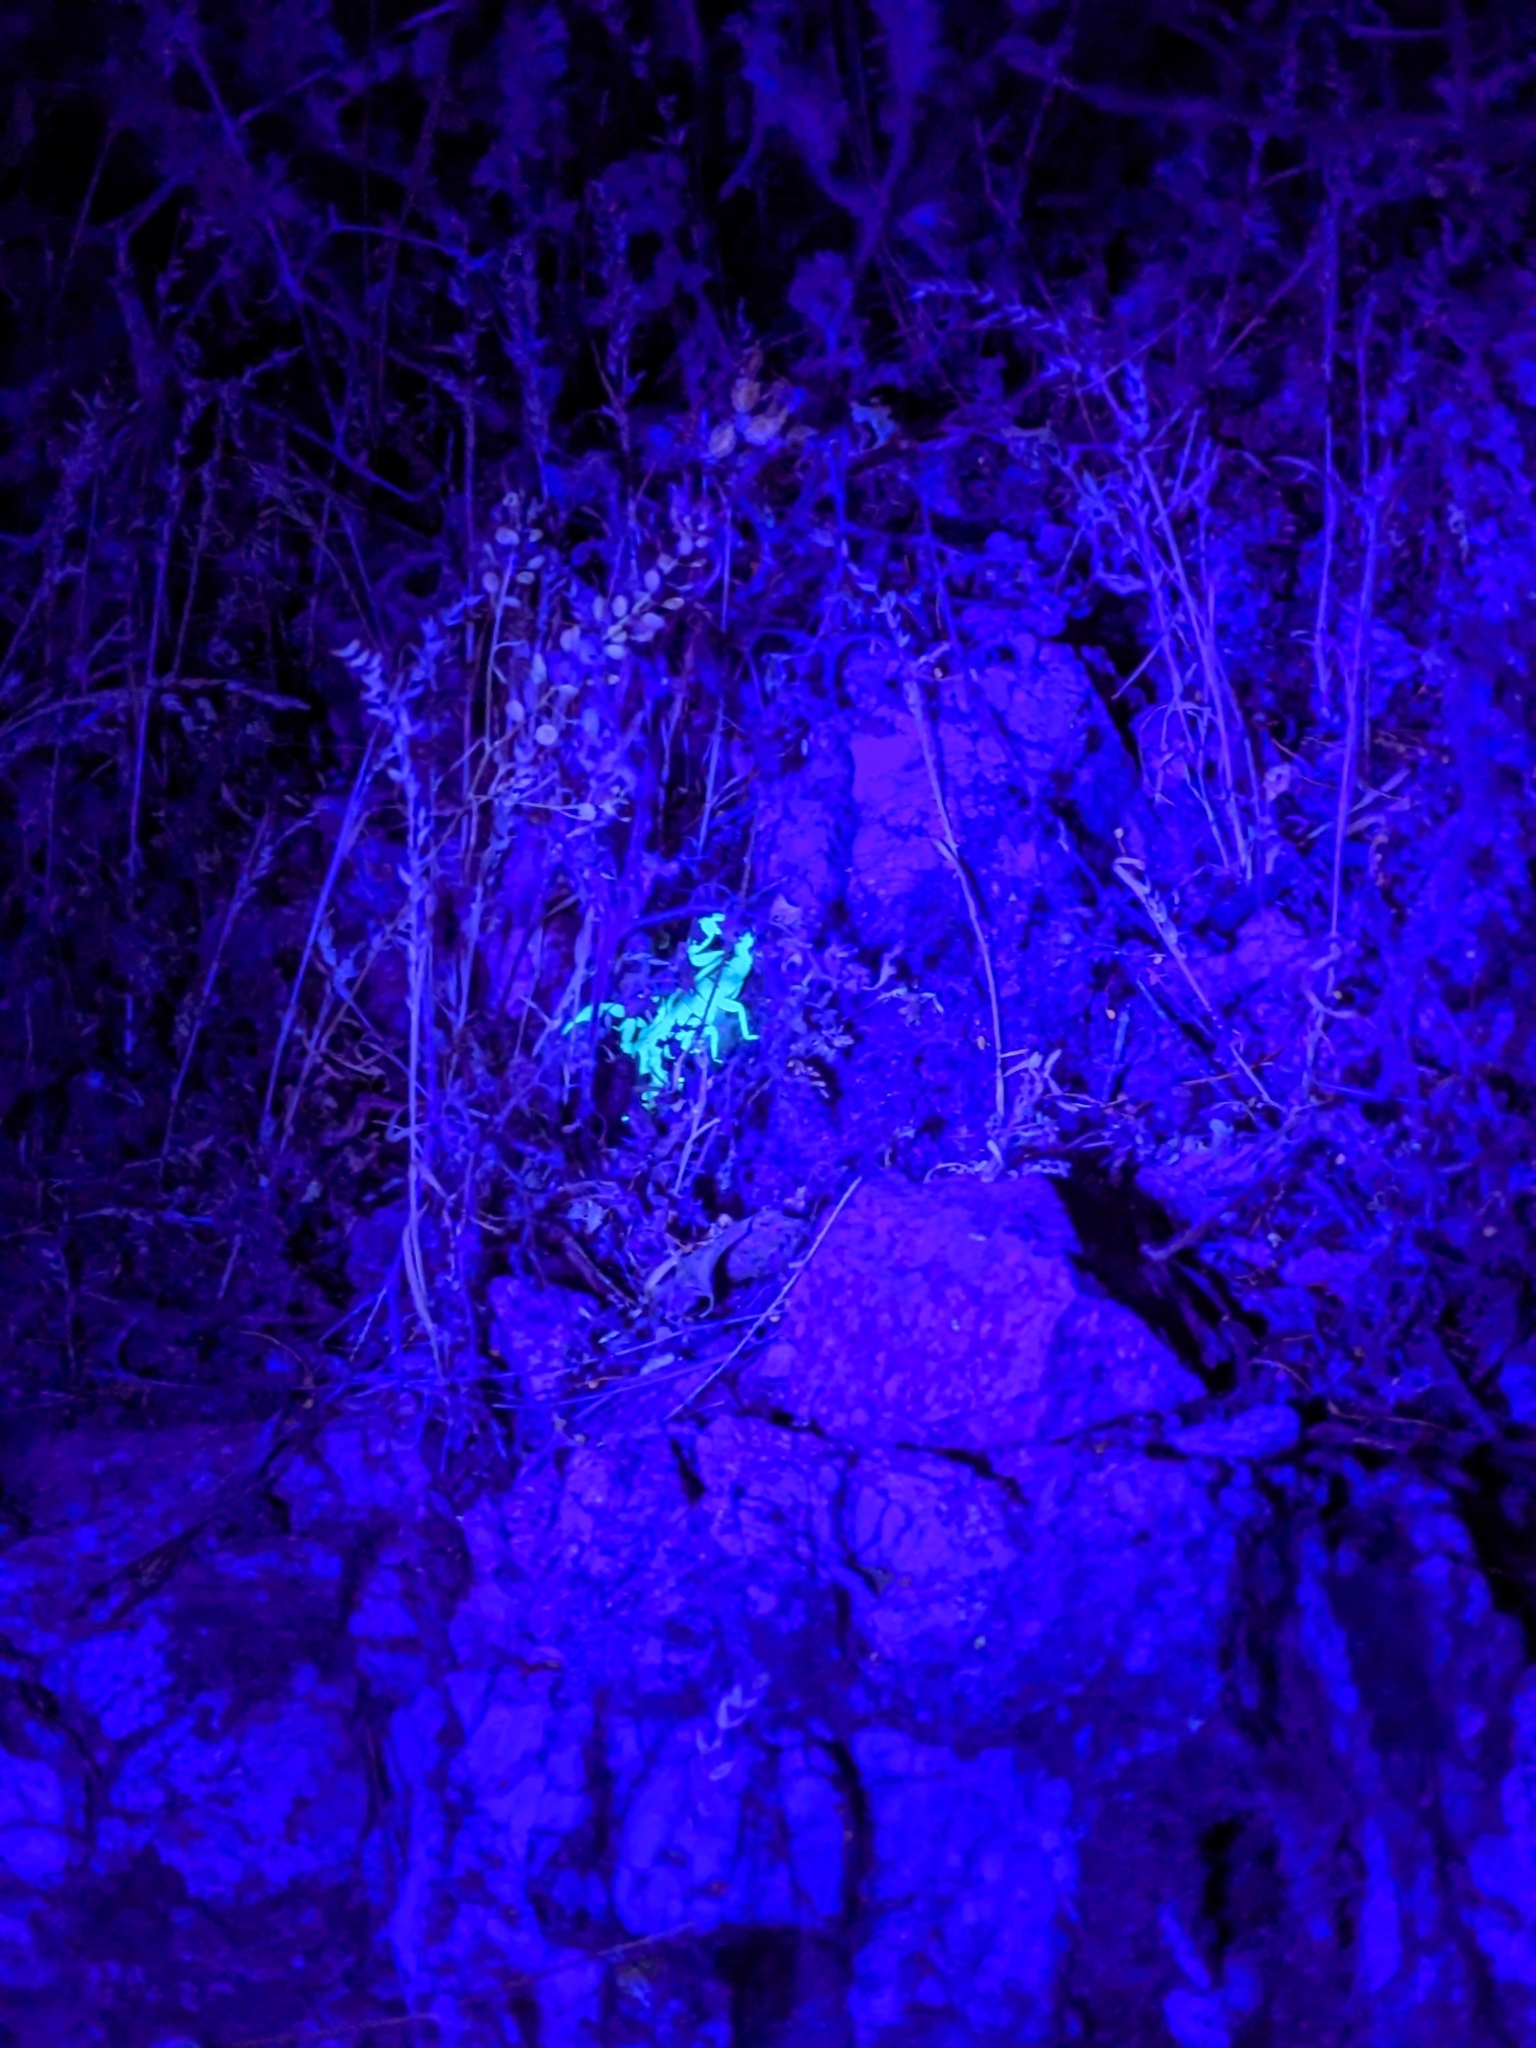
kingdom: Animalia
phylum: Arthropoda
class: Arachnida
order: Scorpiones
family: Vaejovidae
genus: Paravaejovis
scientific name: Paravaejovis spinigerus
